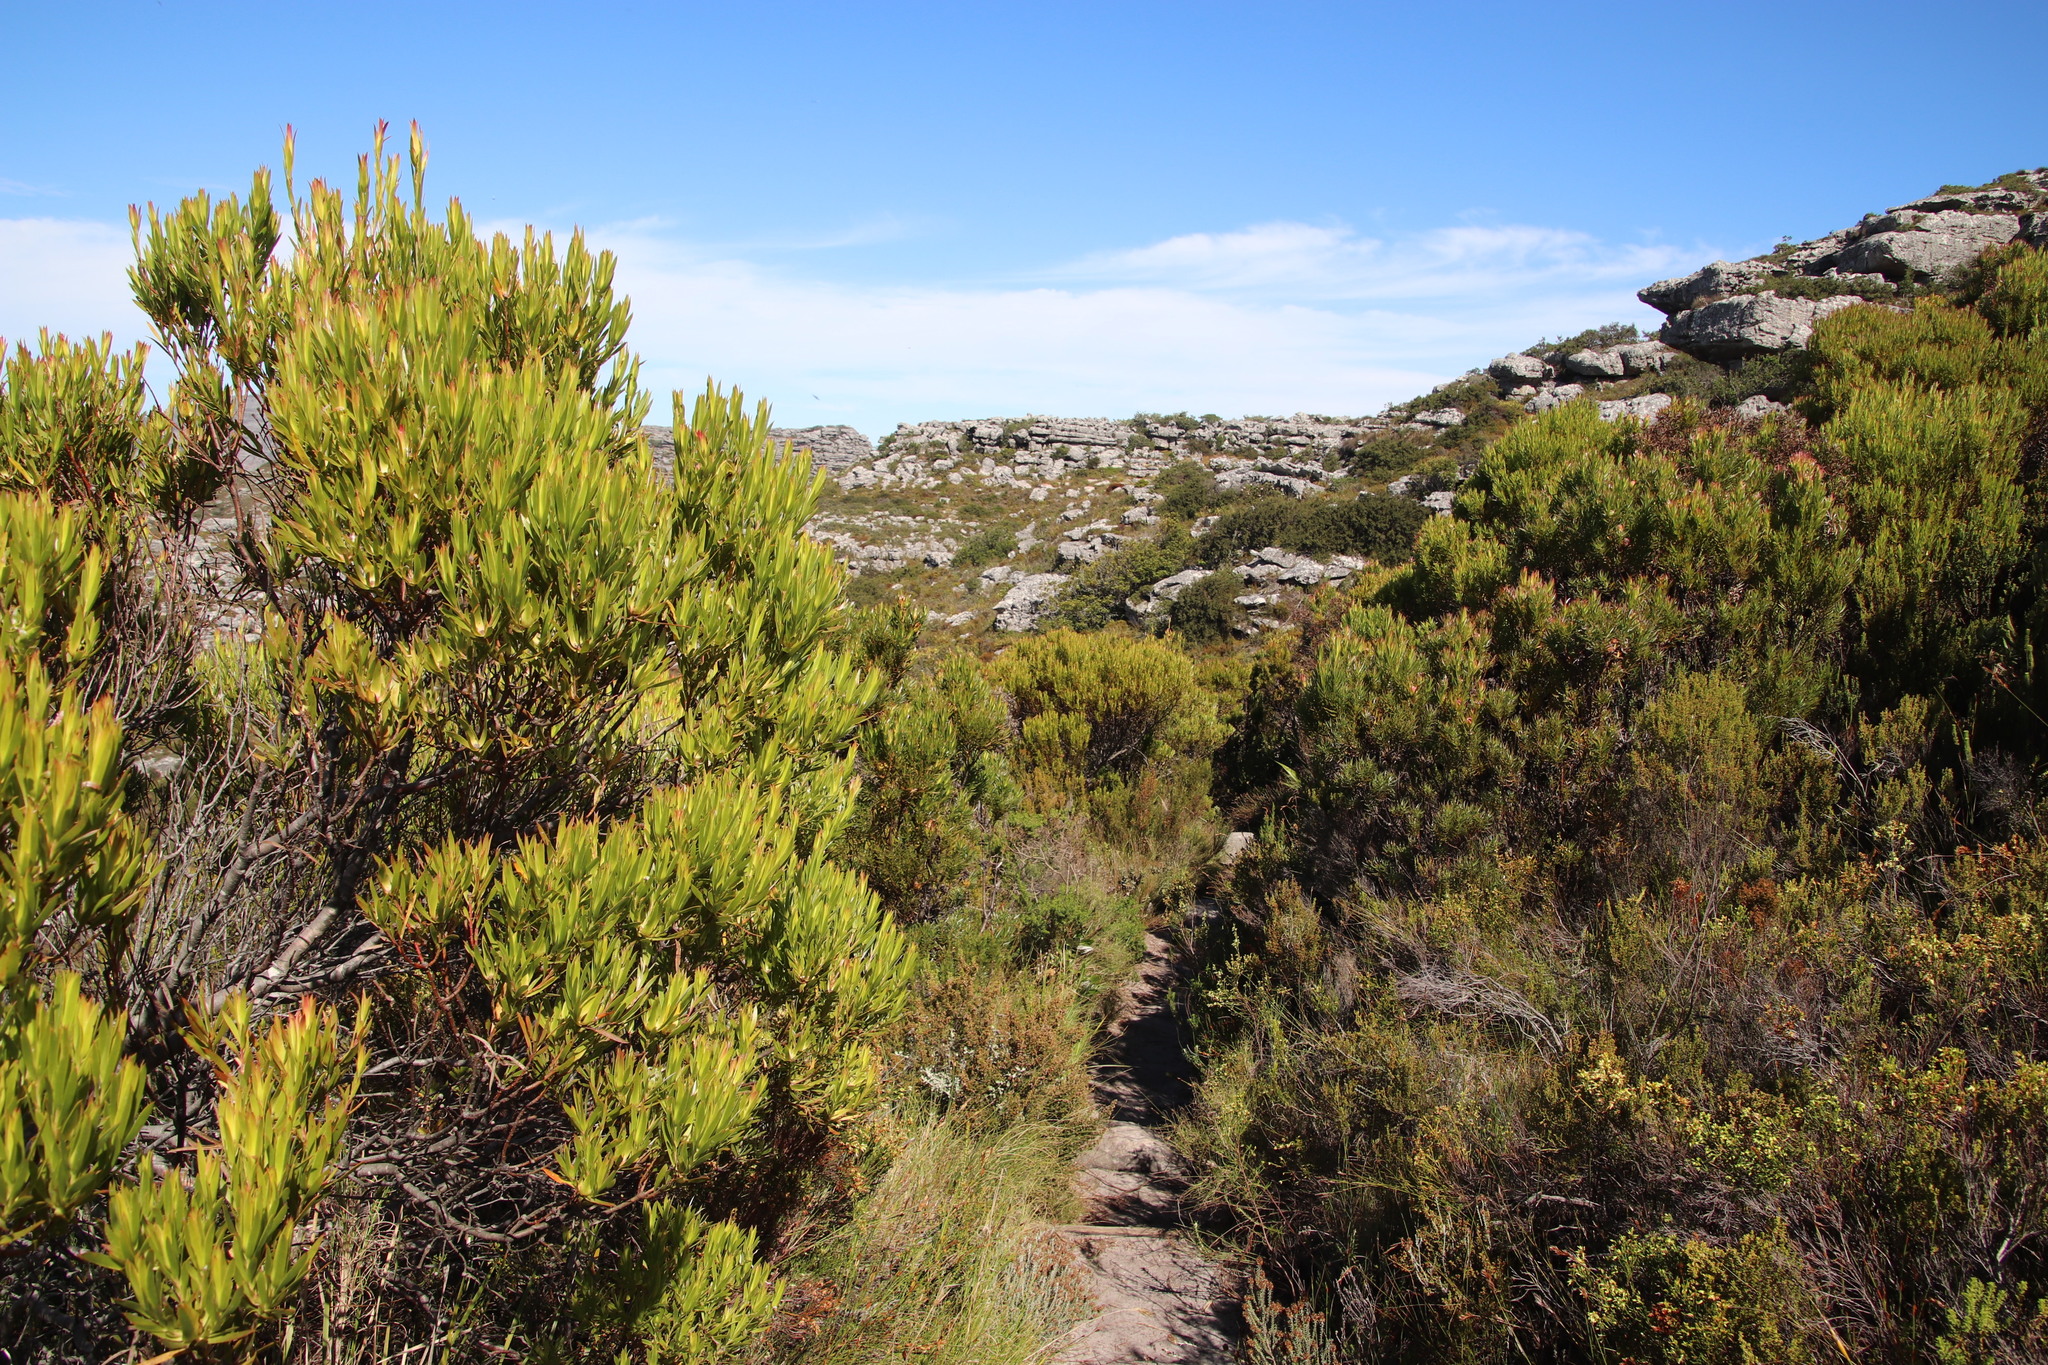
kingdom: Plantae
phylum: Tracheophyta
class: Magnoliopsida
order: Proteales
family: Proteaceae
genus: Leucadendron
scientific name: Leucadendron xanthoconus
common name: Sickle-leaf conebush
